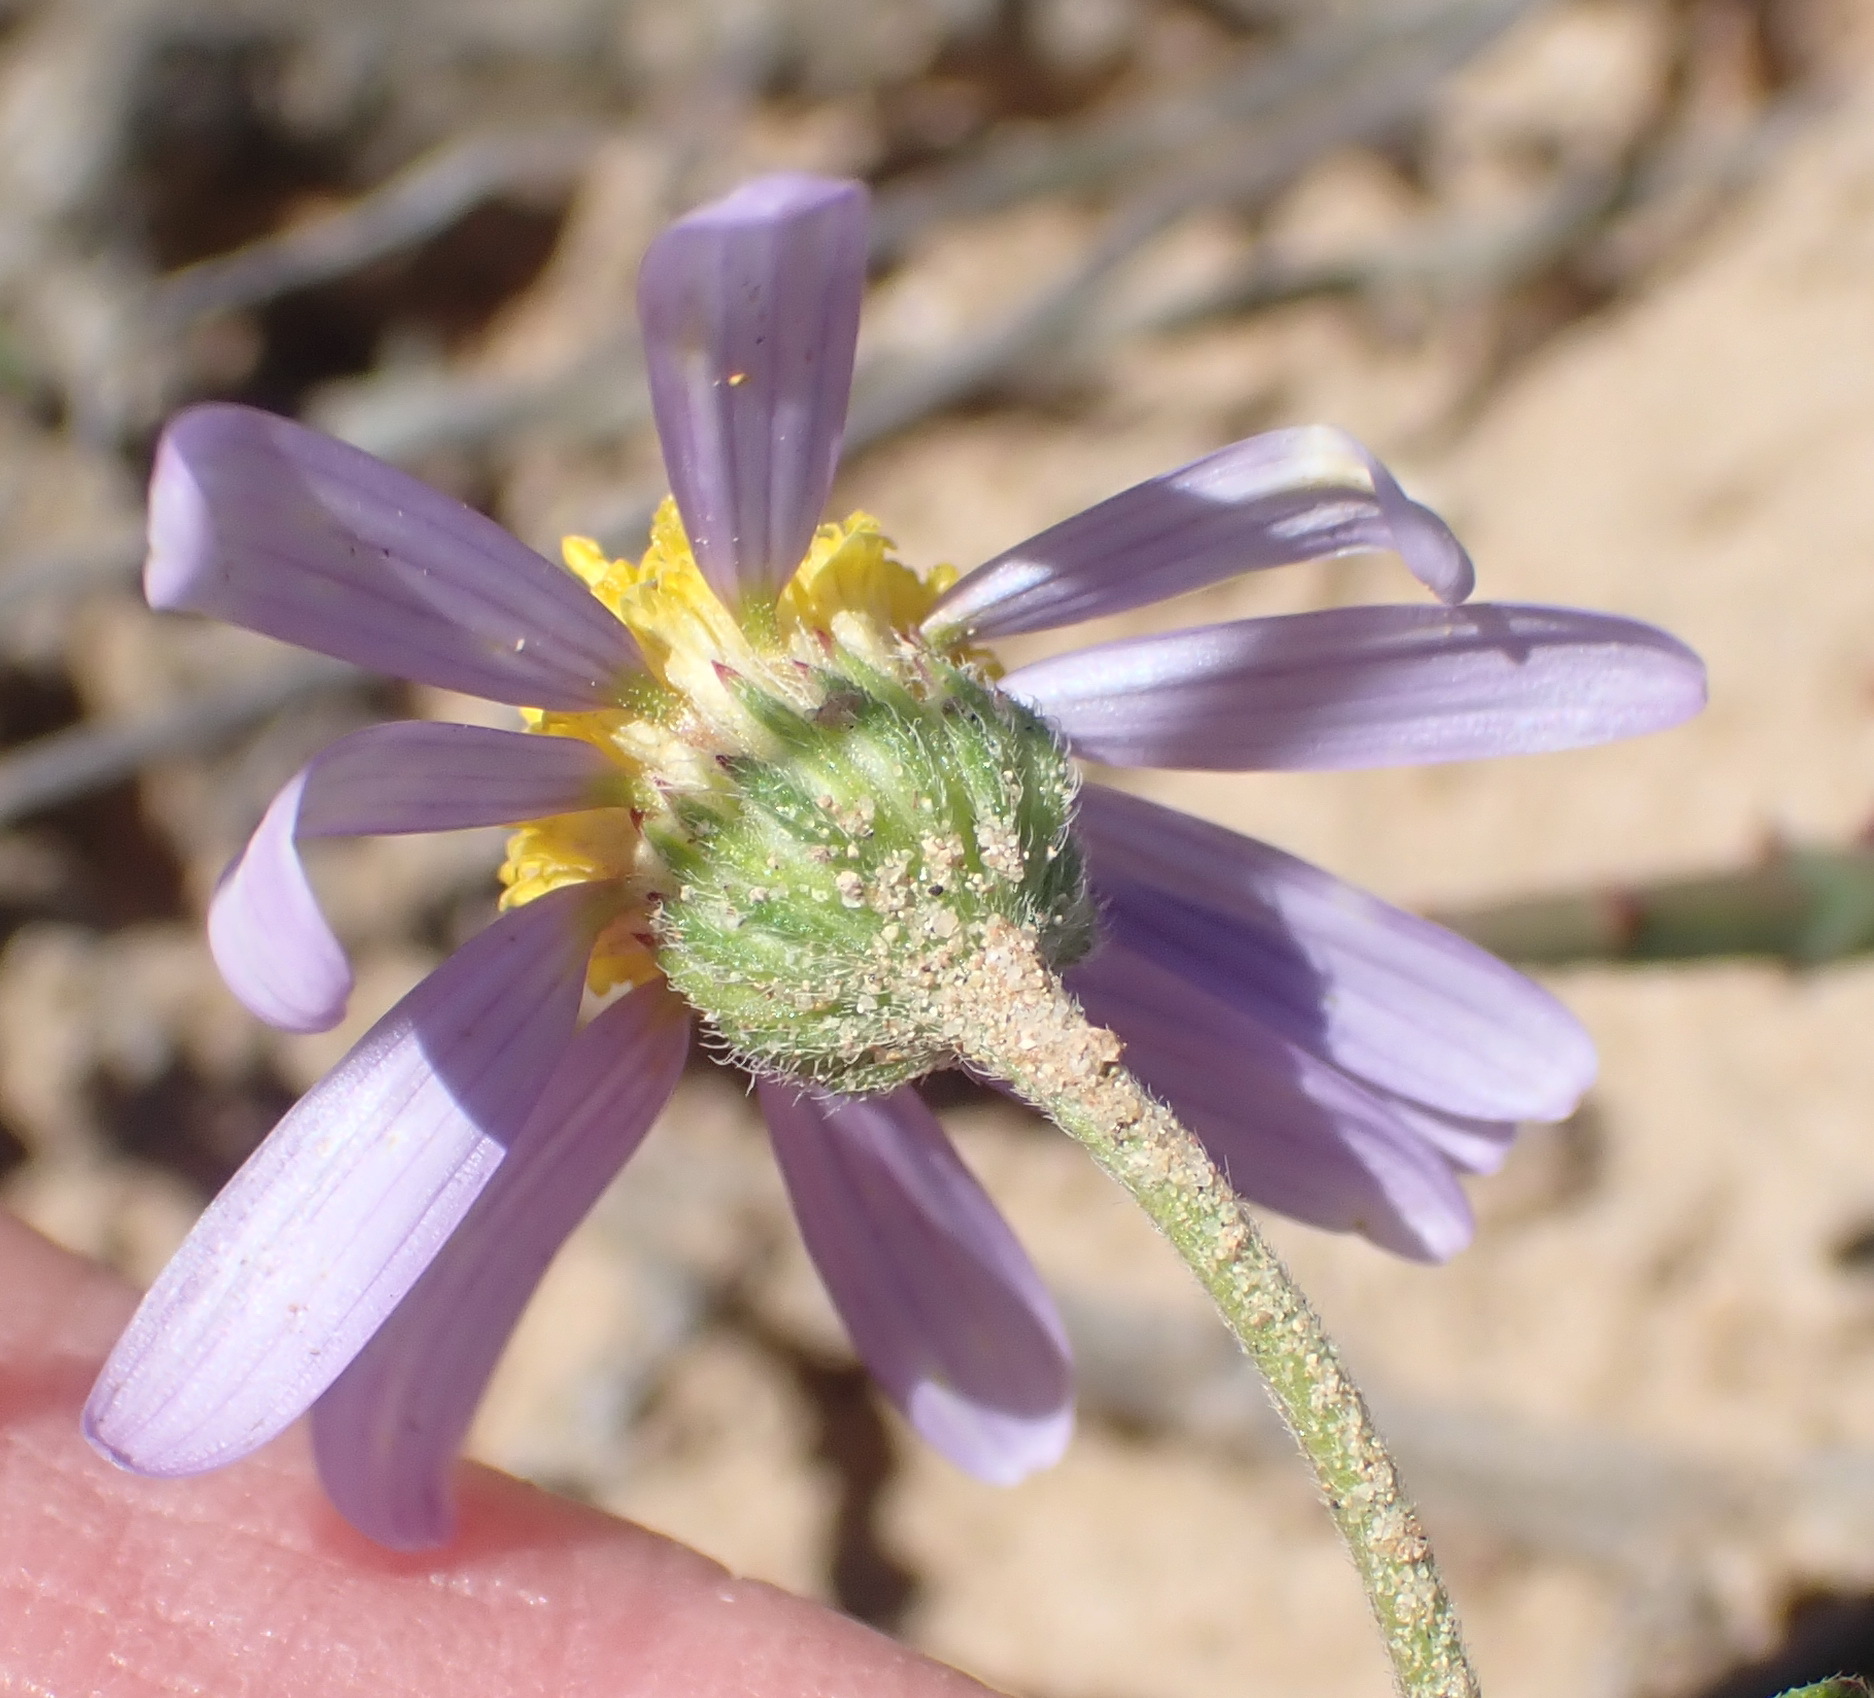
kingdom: Plantae
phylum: Tracheophyta
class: Magnoliopsida
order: Asterales
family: Asteraceae
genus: Amellus
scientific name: Amellus strigosus
